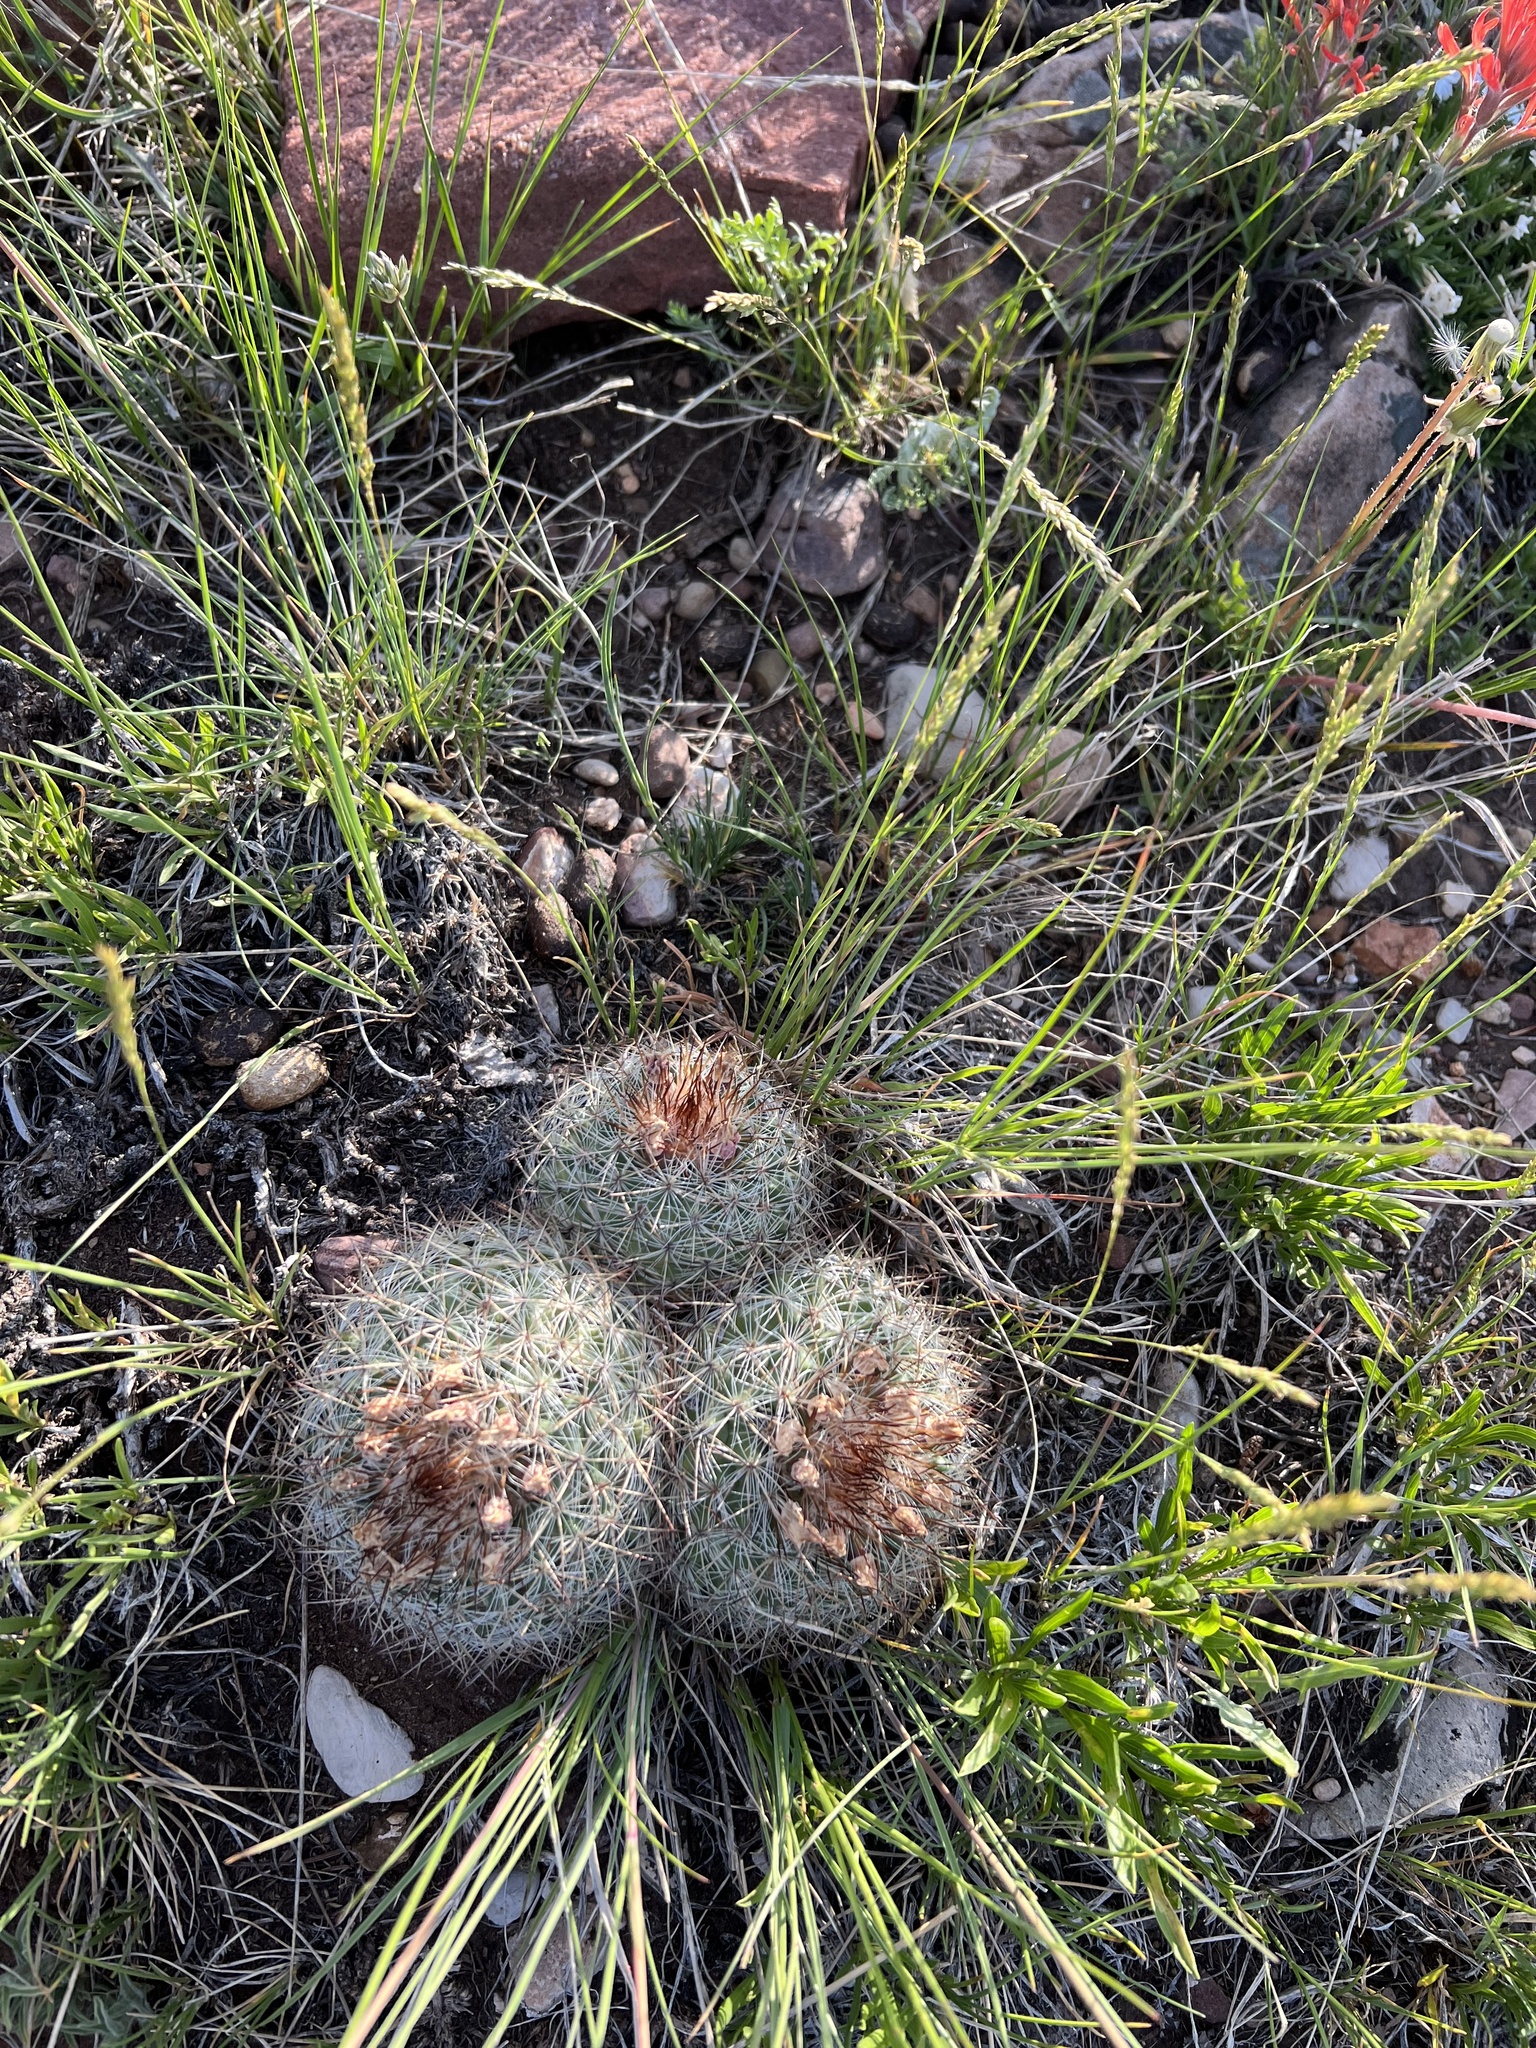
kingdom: Plantae
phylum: Tracheophyta
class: Magnoliopsida
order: Caryophyllales
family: Cactaceae
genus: Pediocactus
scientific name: Pediocactus simpsonii
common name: Simpson's hedgehog cactus
